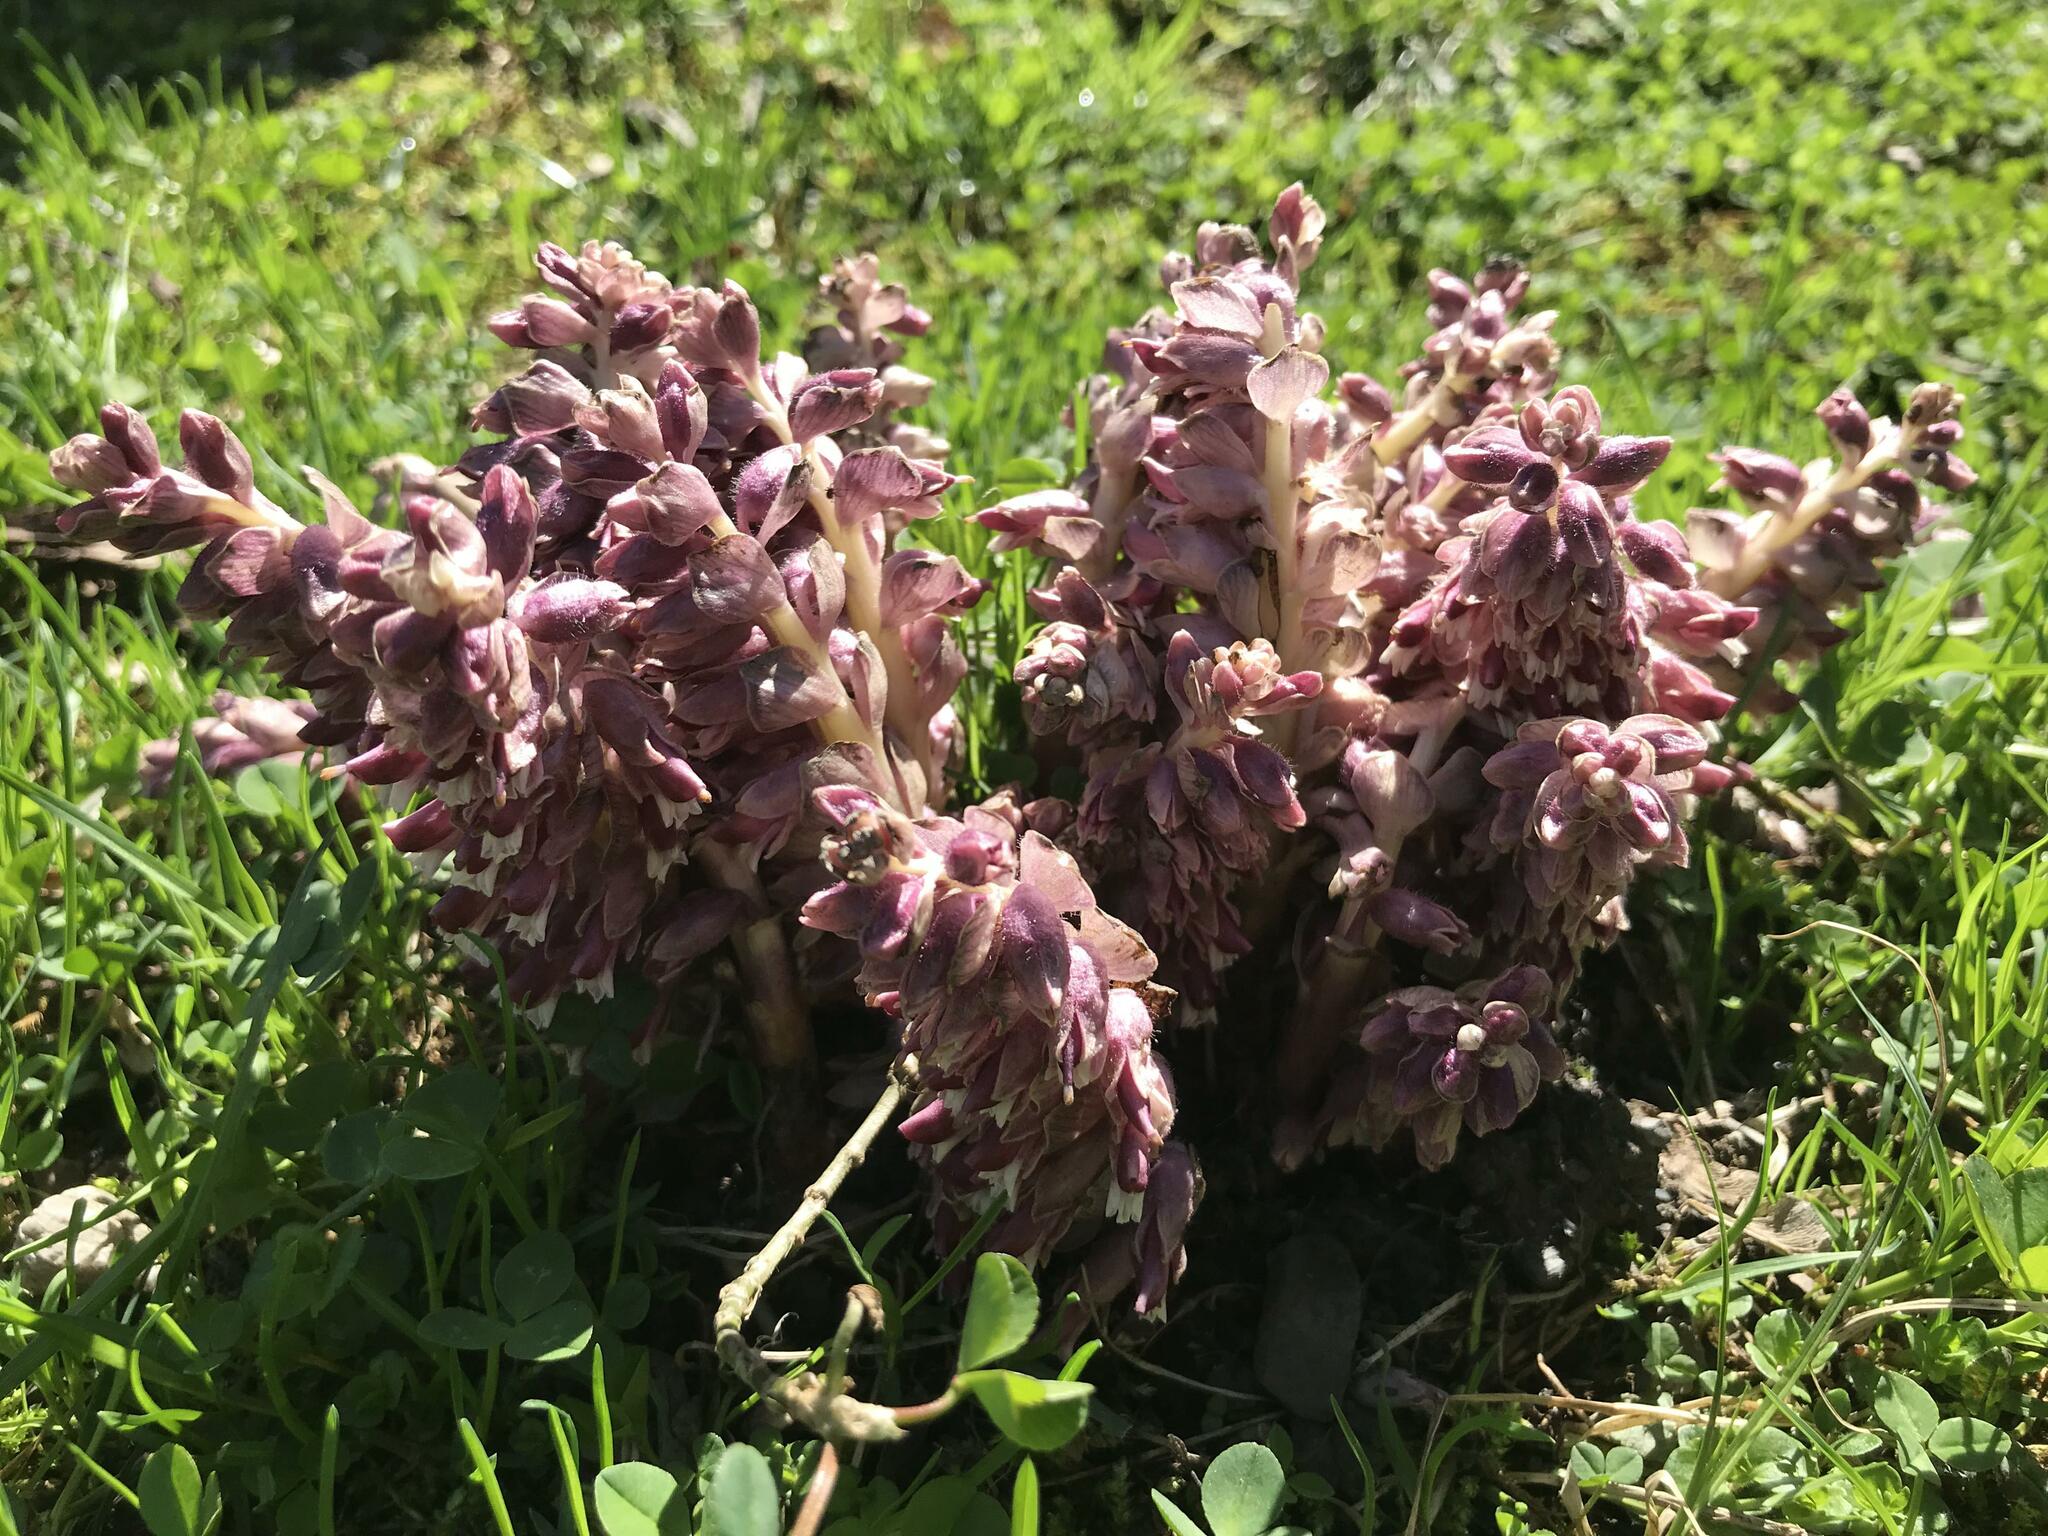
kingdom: Plantae
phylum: Tracheophyta
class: Magnoliopsida
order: Lamiales
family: Orobanchaceae
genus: Lathraea
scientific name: Lathraea squamaria
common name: Toothwort
